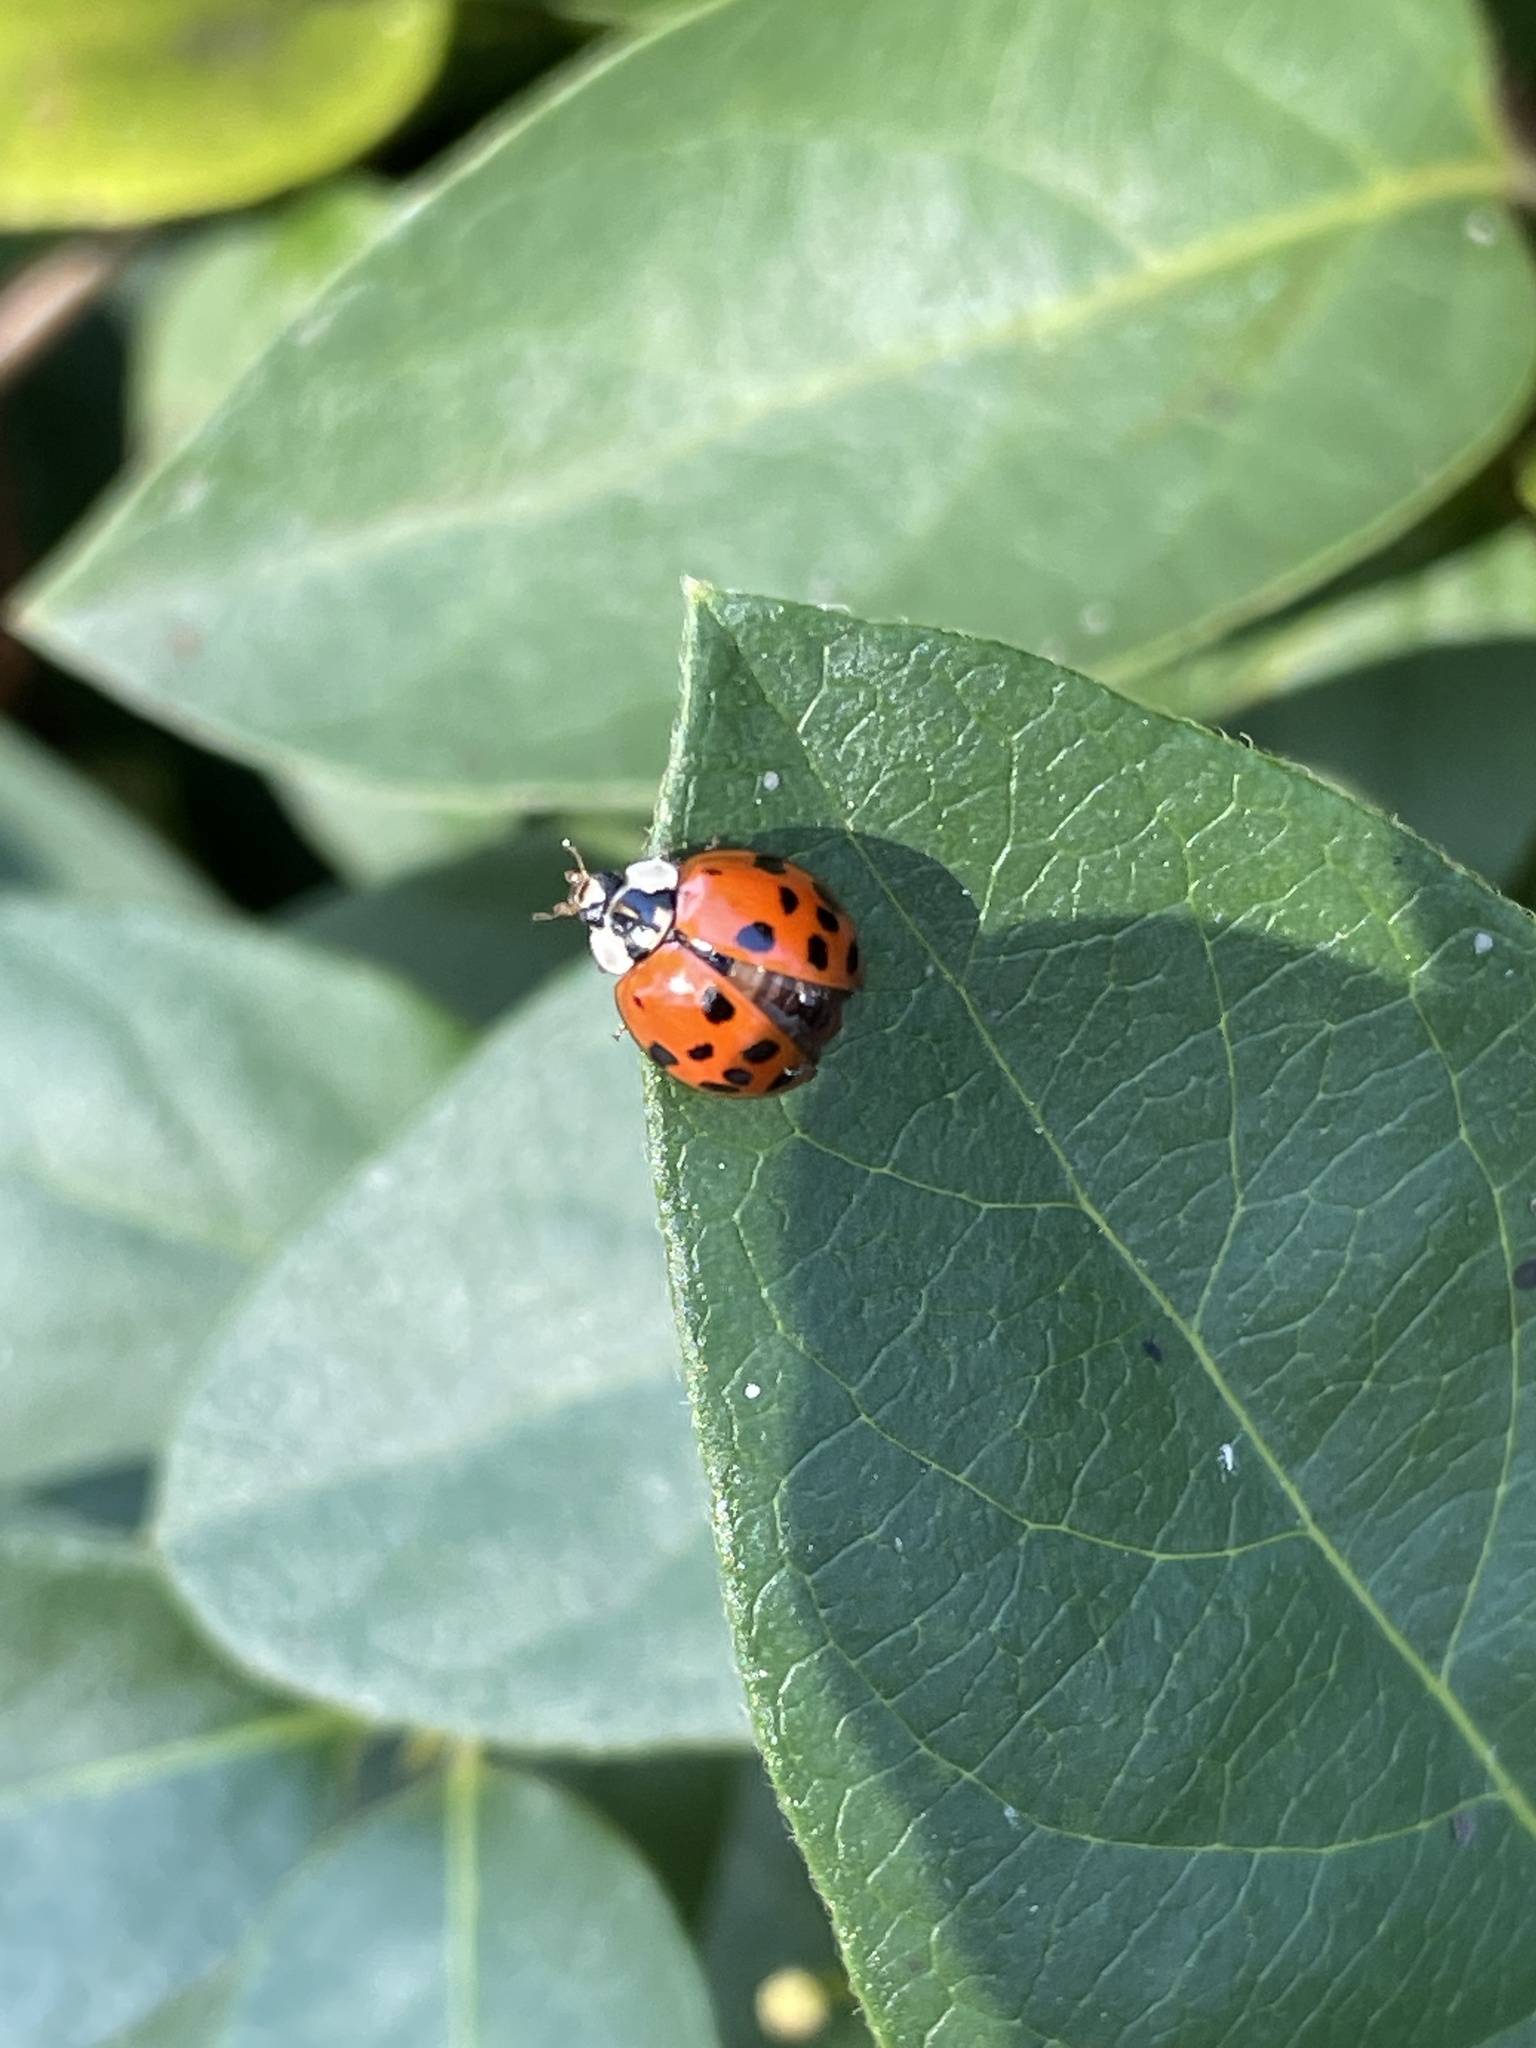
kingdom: Animalia
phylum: Arthropoda
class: Insecta
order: Coleoptera
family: Coccinellidae
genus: Harmonia
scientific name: Harmonia axyridis
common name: Harlequin ladybird
